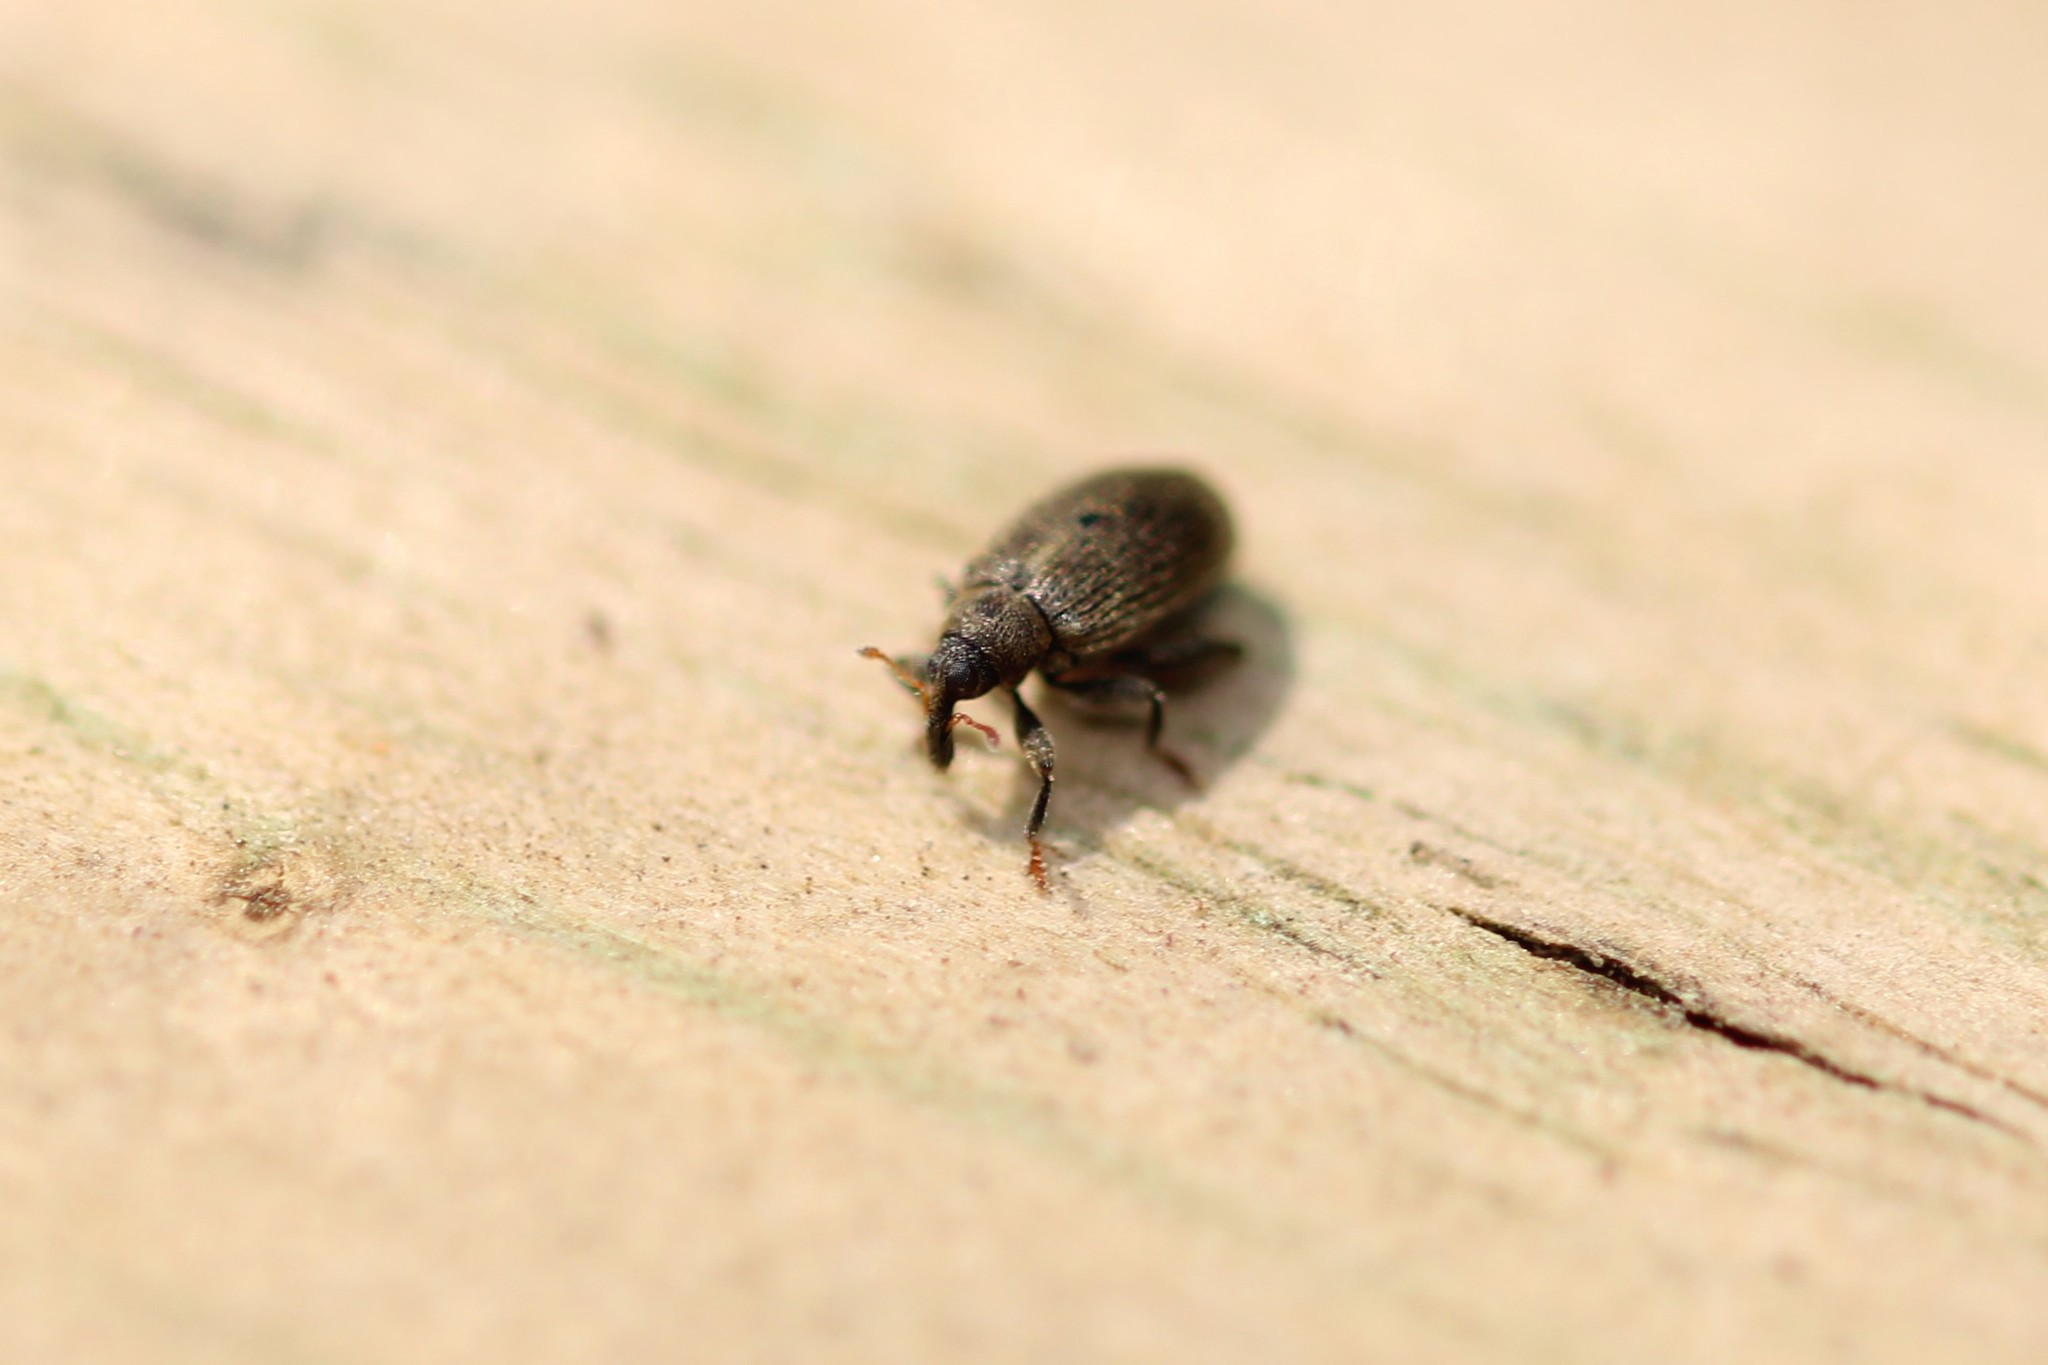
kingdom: Animalia
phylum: Arthropoda
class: Insecta
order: Coleoptera
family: Curculionidae
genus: Orchestes
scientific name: Orchestes fagi
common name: Beech leaf miner
